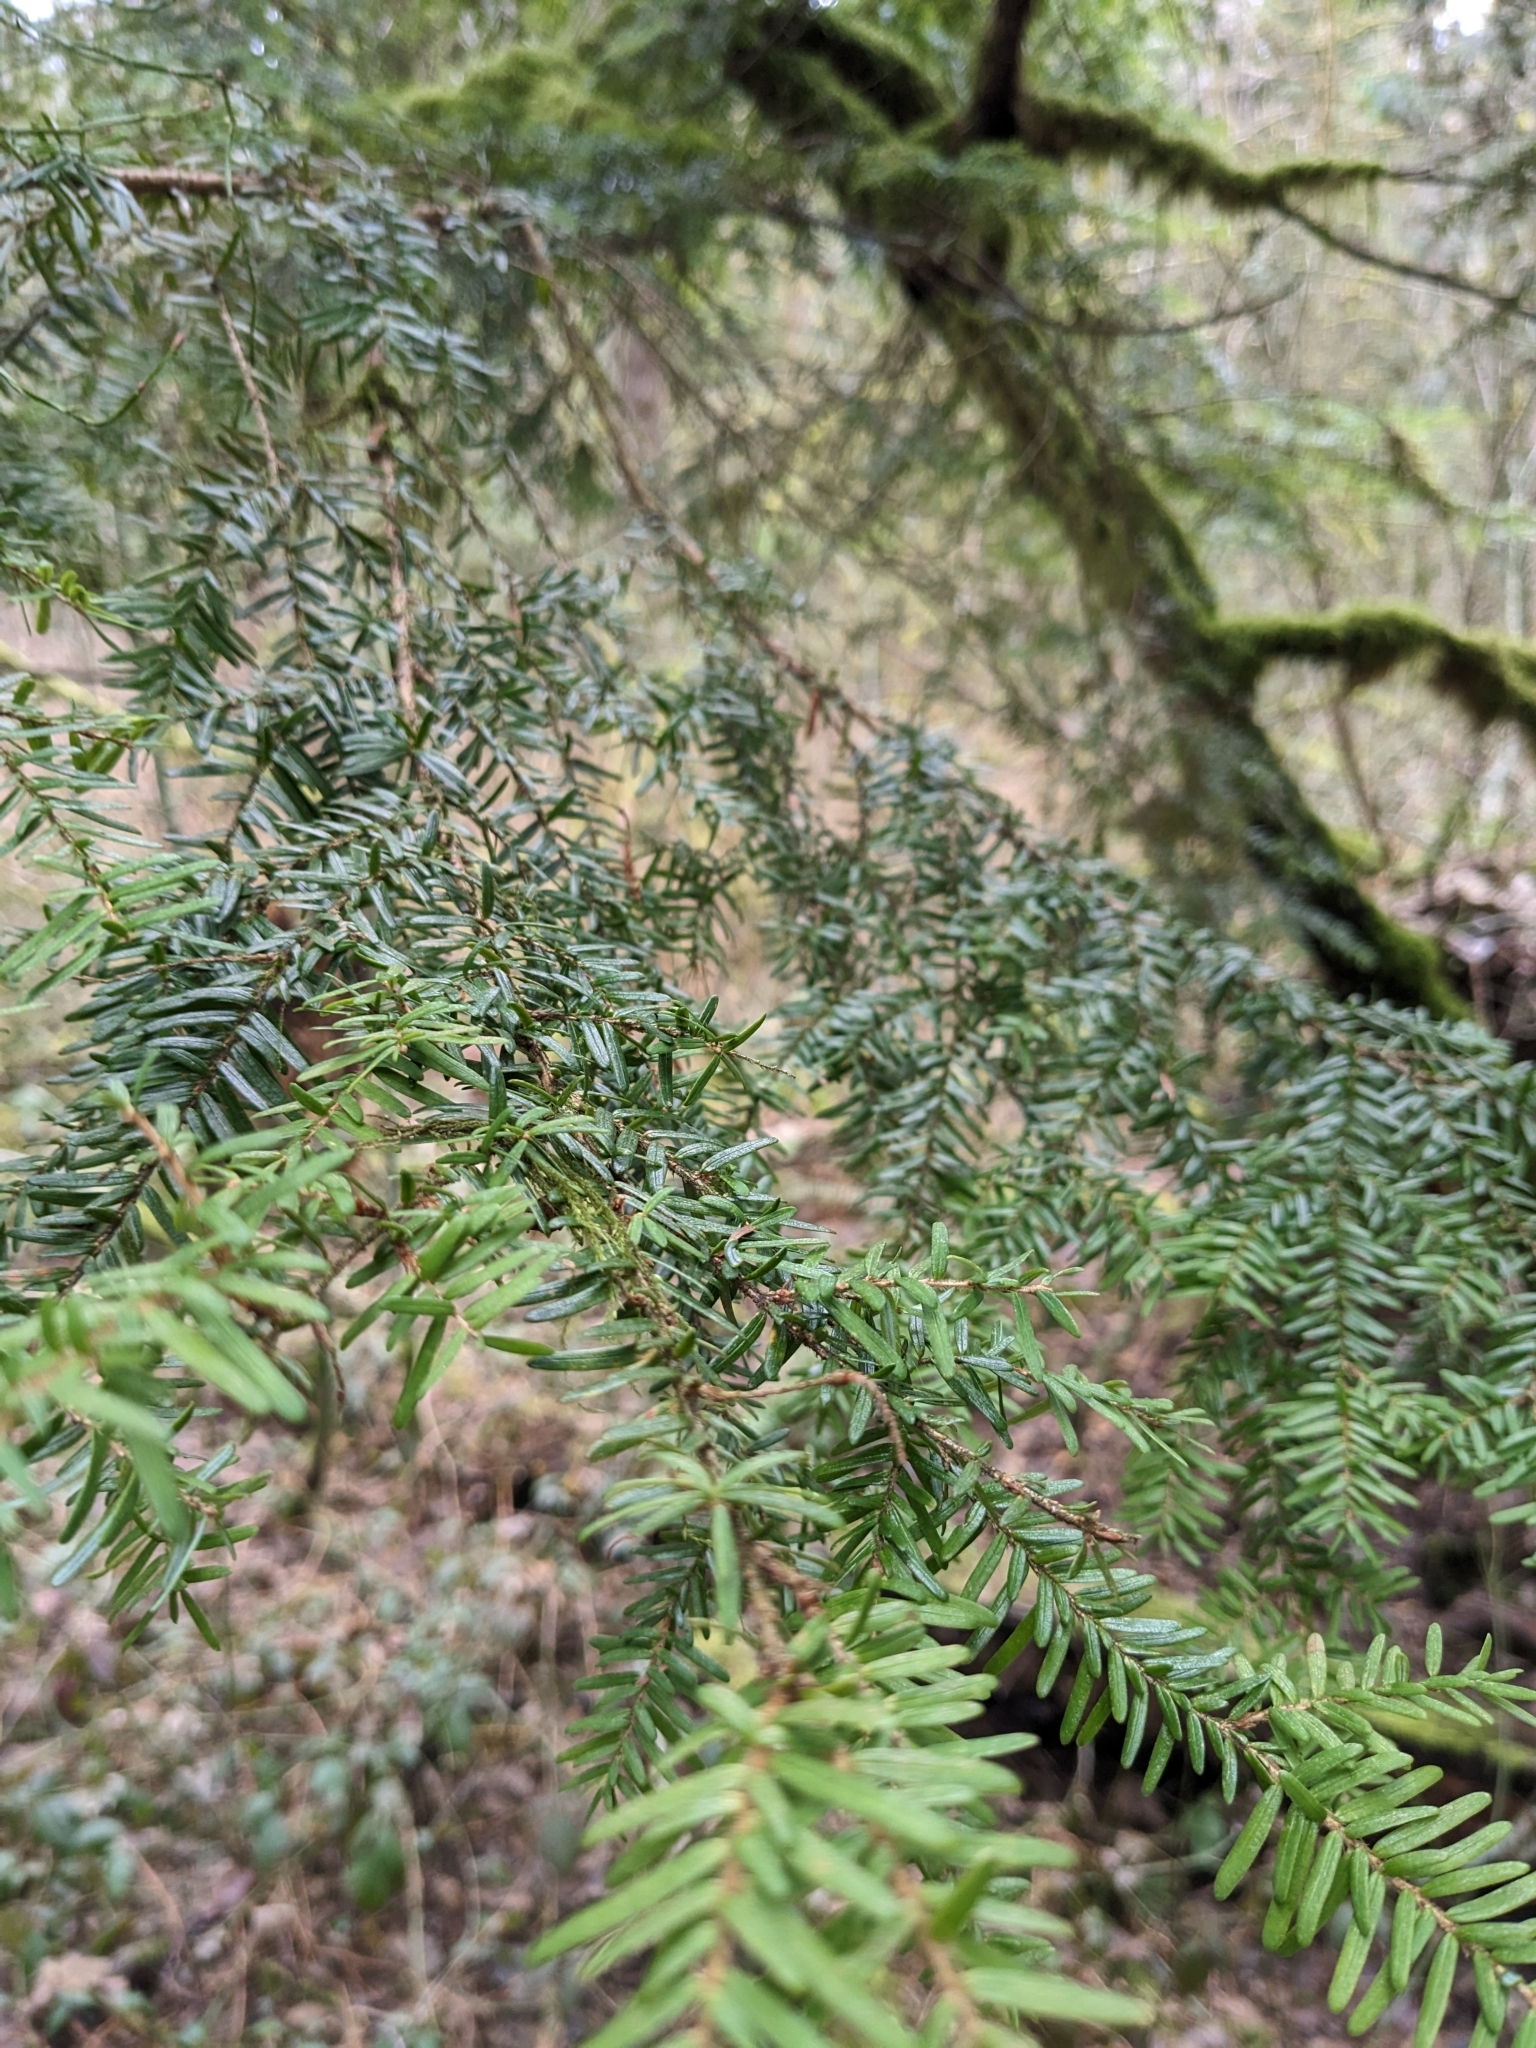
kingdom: Plantae
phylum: Tracheophyta
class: Pinopsida
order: Pinales
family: Pinaceae
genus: Tsuga
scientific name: Tsuga heterophylla
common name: Western hemlock
